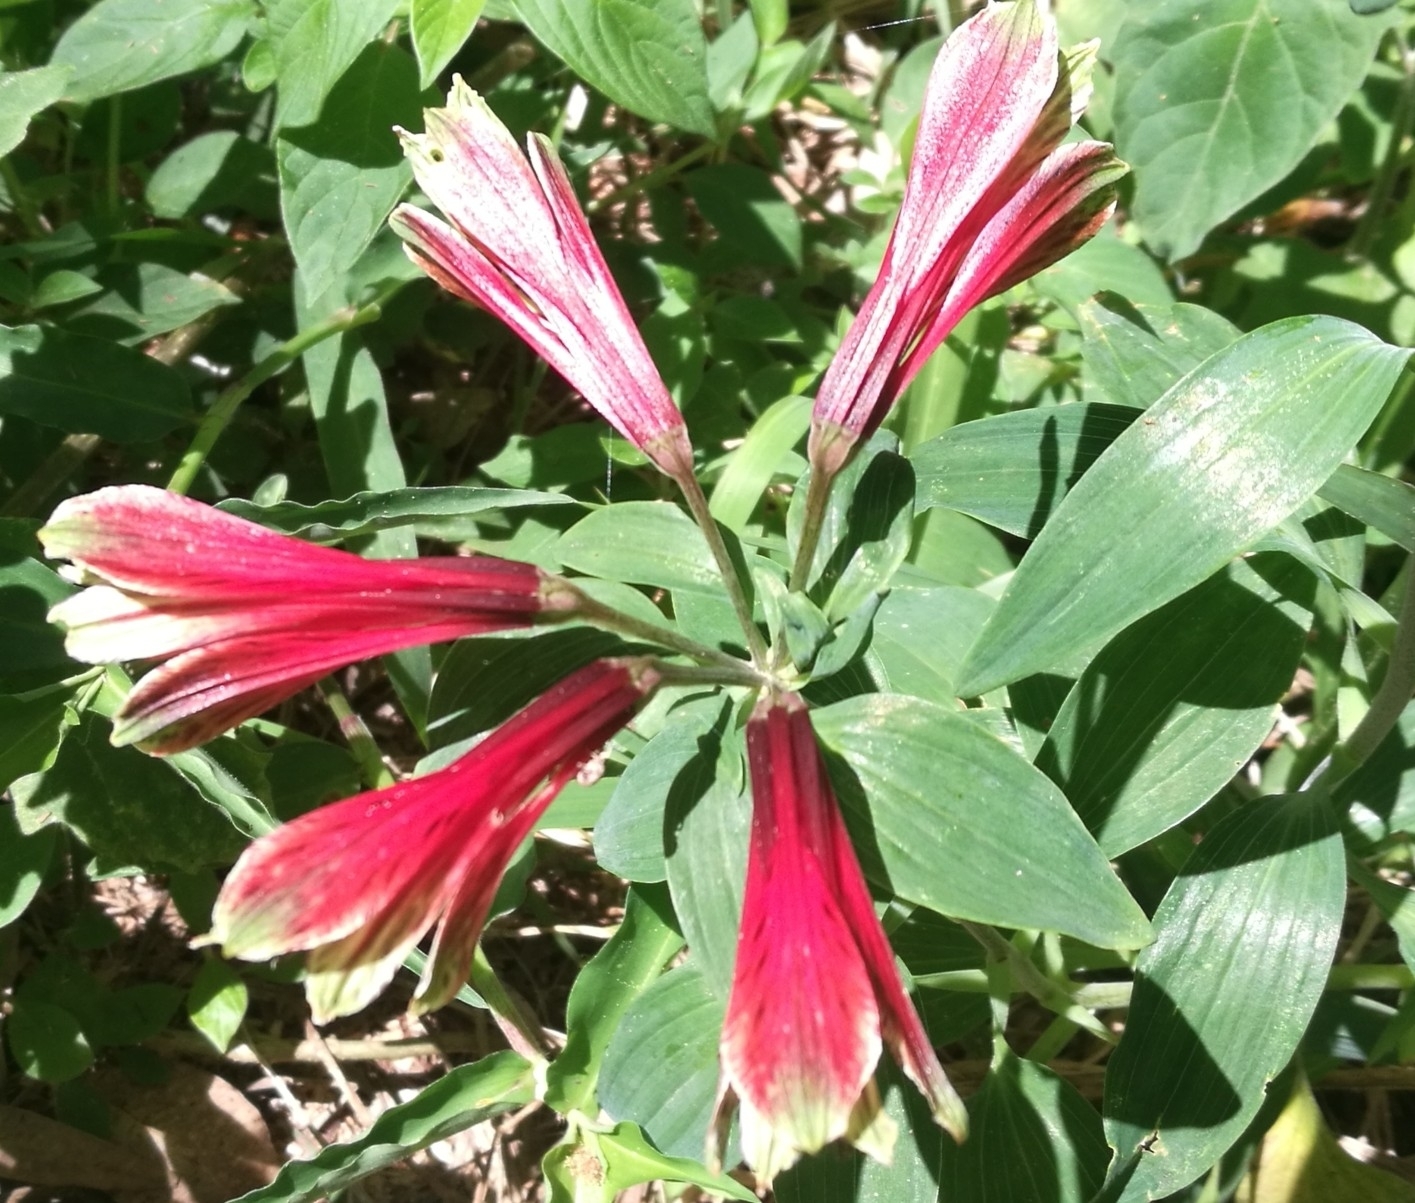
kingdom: Plantae
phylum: Tracheophyta
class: Liliopsida
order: Liliales
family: Alstroemeriaceae
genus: Alstroemeria
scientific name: Alstroemeria psittacina
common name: Peruvian-lily
